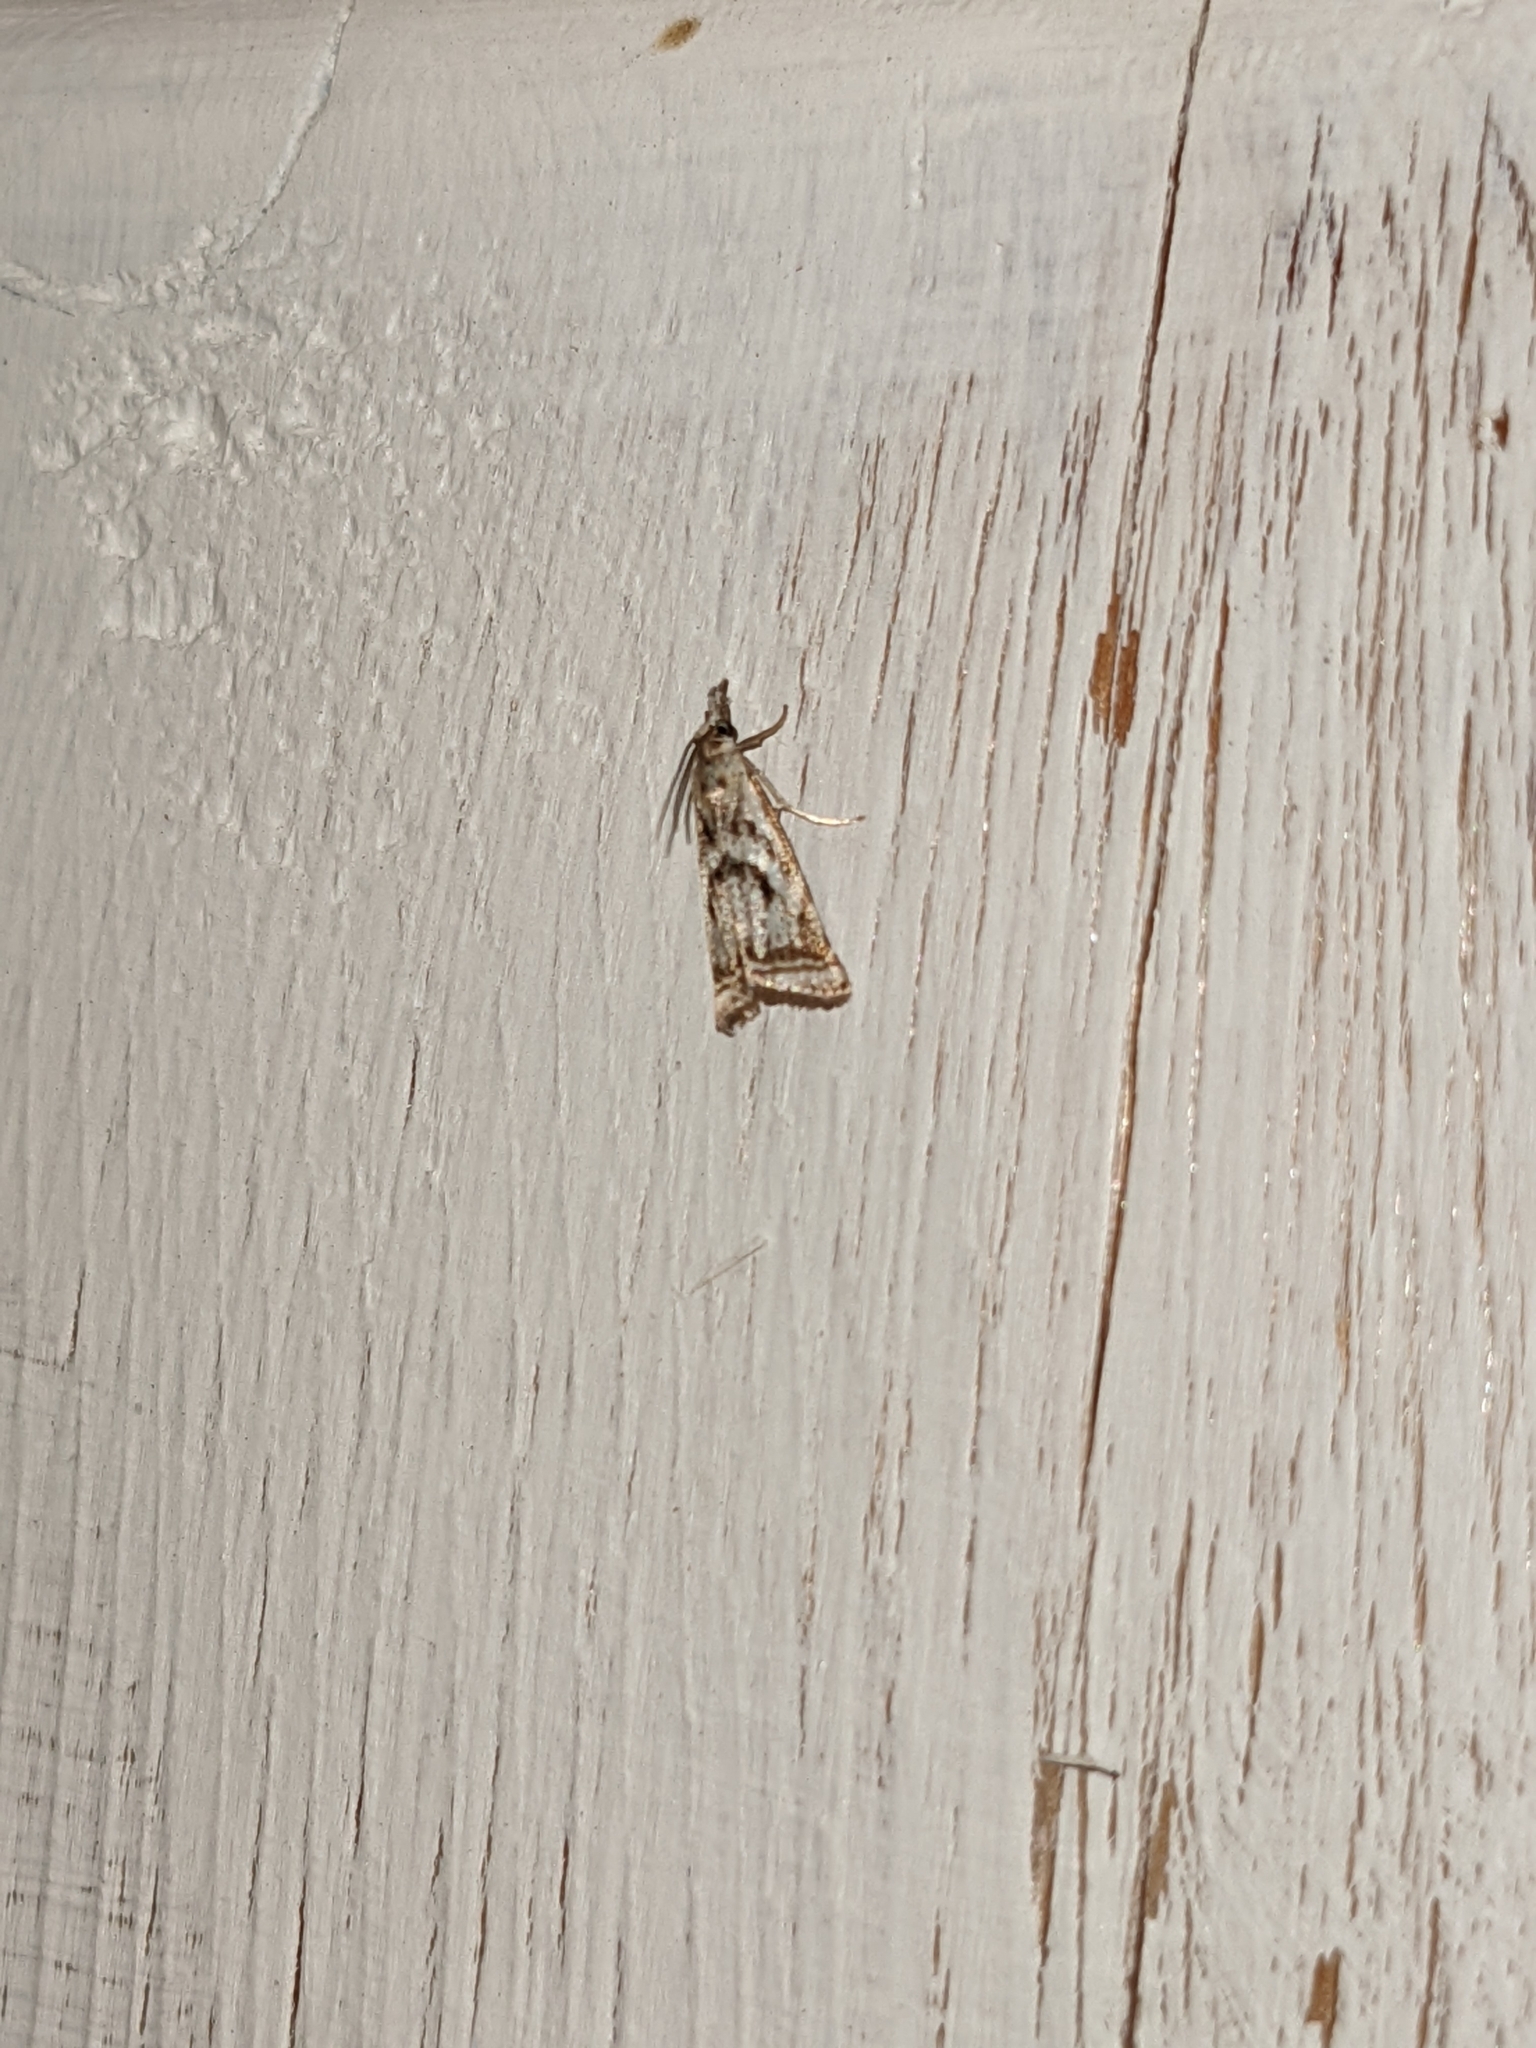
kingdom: Animalia
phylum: Arthropoda
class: Insecta
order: Lepidoptera
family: Crambidae
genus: Microcrambus
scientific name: Microcrambus elegans
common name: Elegant grass-veneer
